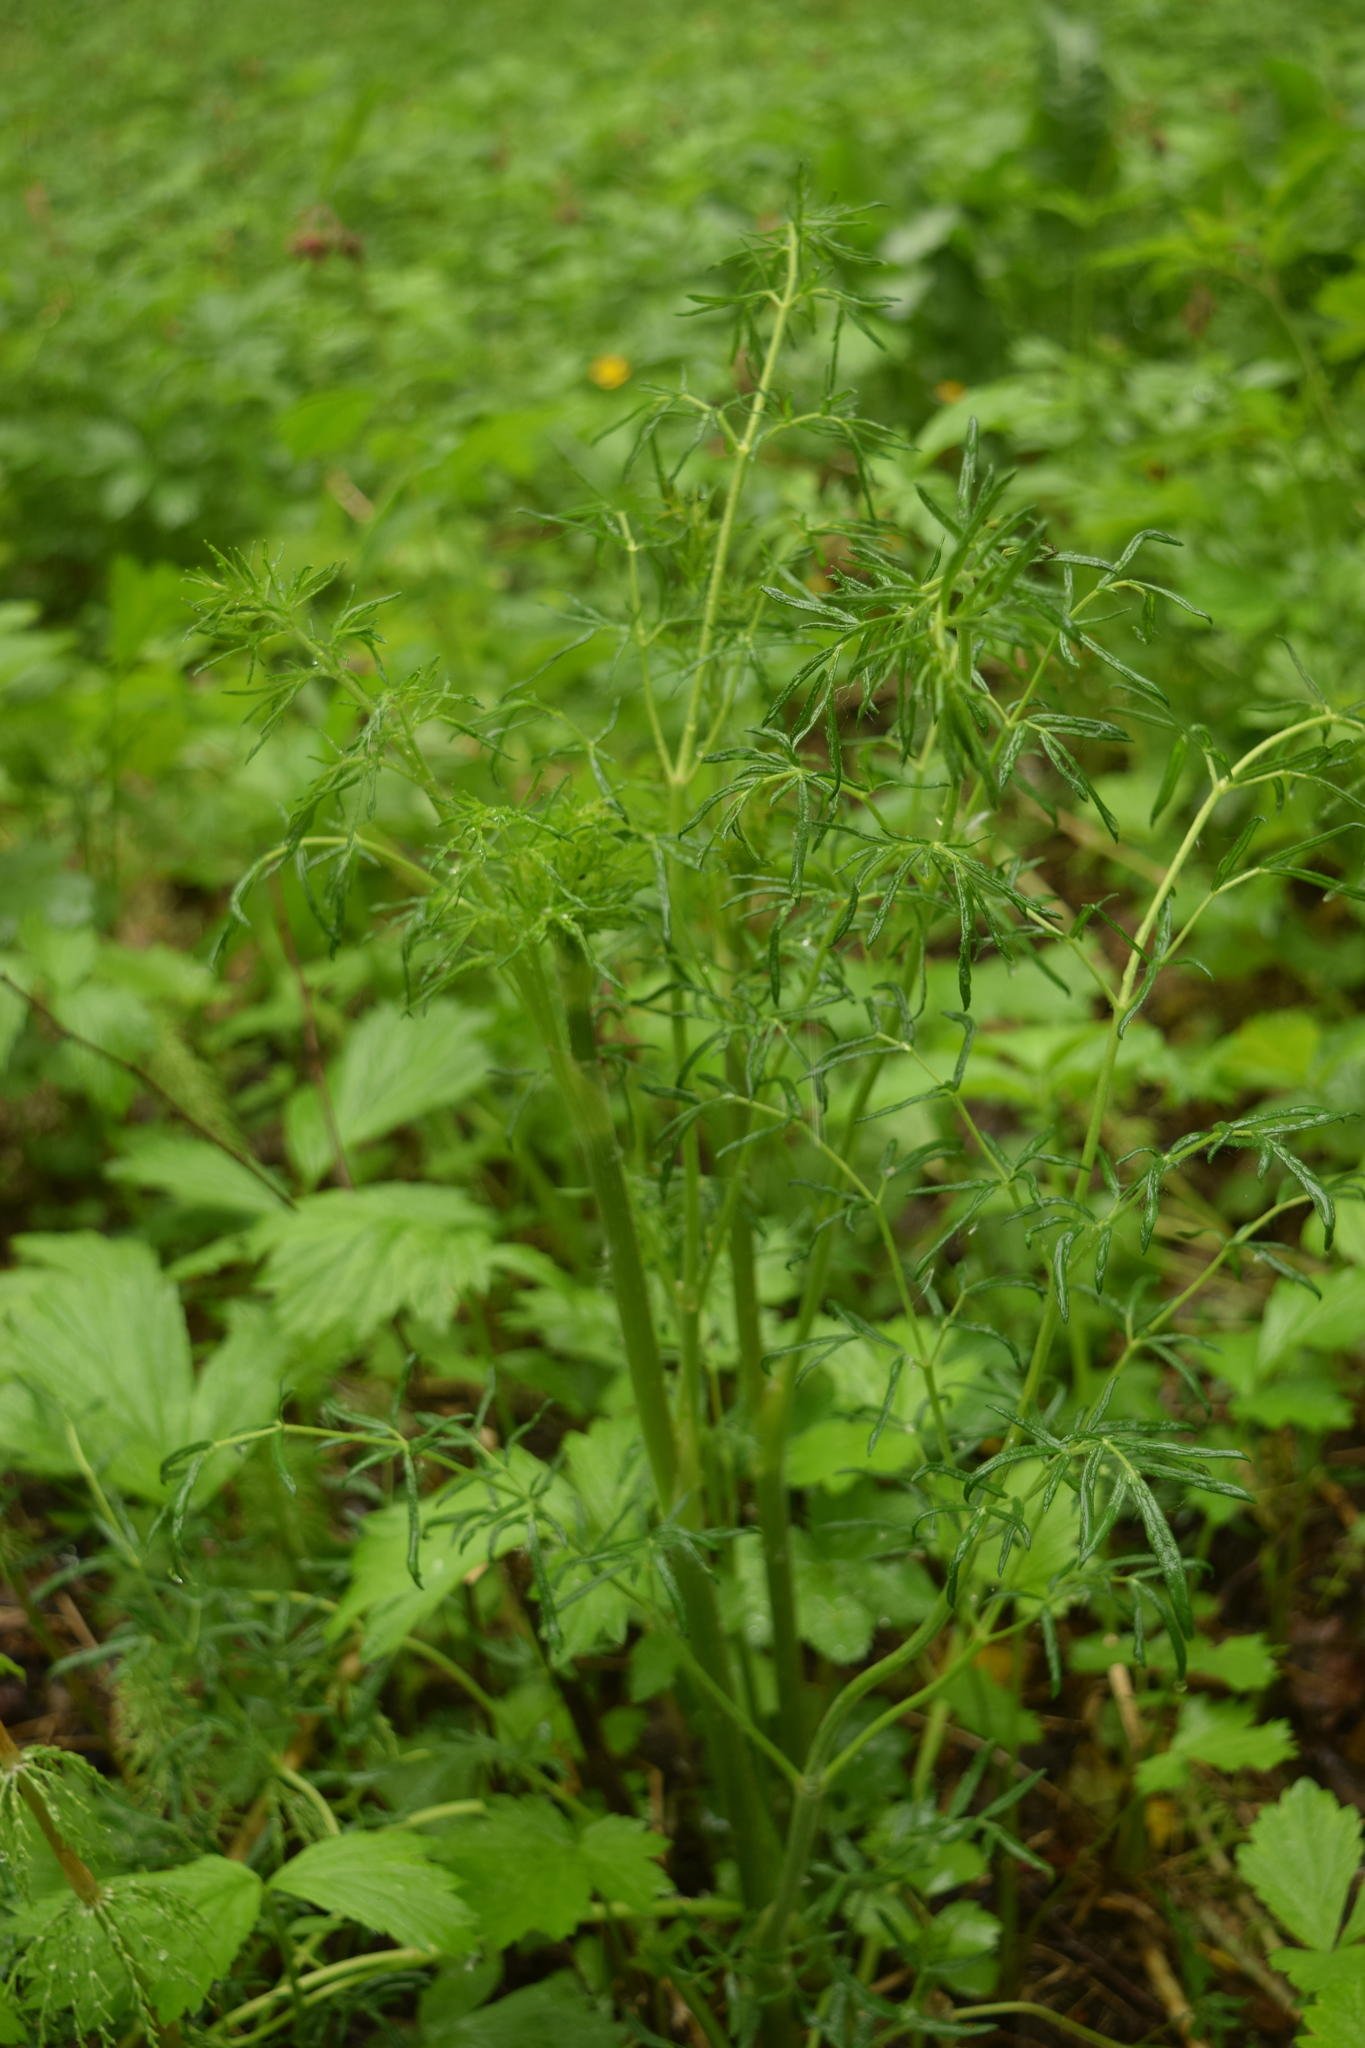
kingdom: Plantae
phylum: Tracheophyta
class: Magnoliopsida
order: Ranunculales
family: Ranunculaceae
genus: Thalictrum
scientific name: Thalictrum lucidum
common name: Shining meadow-rue
